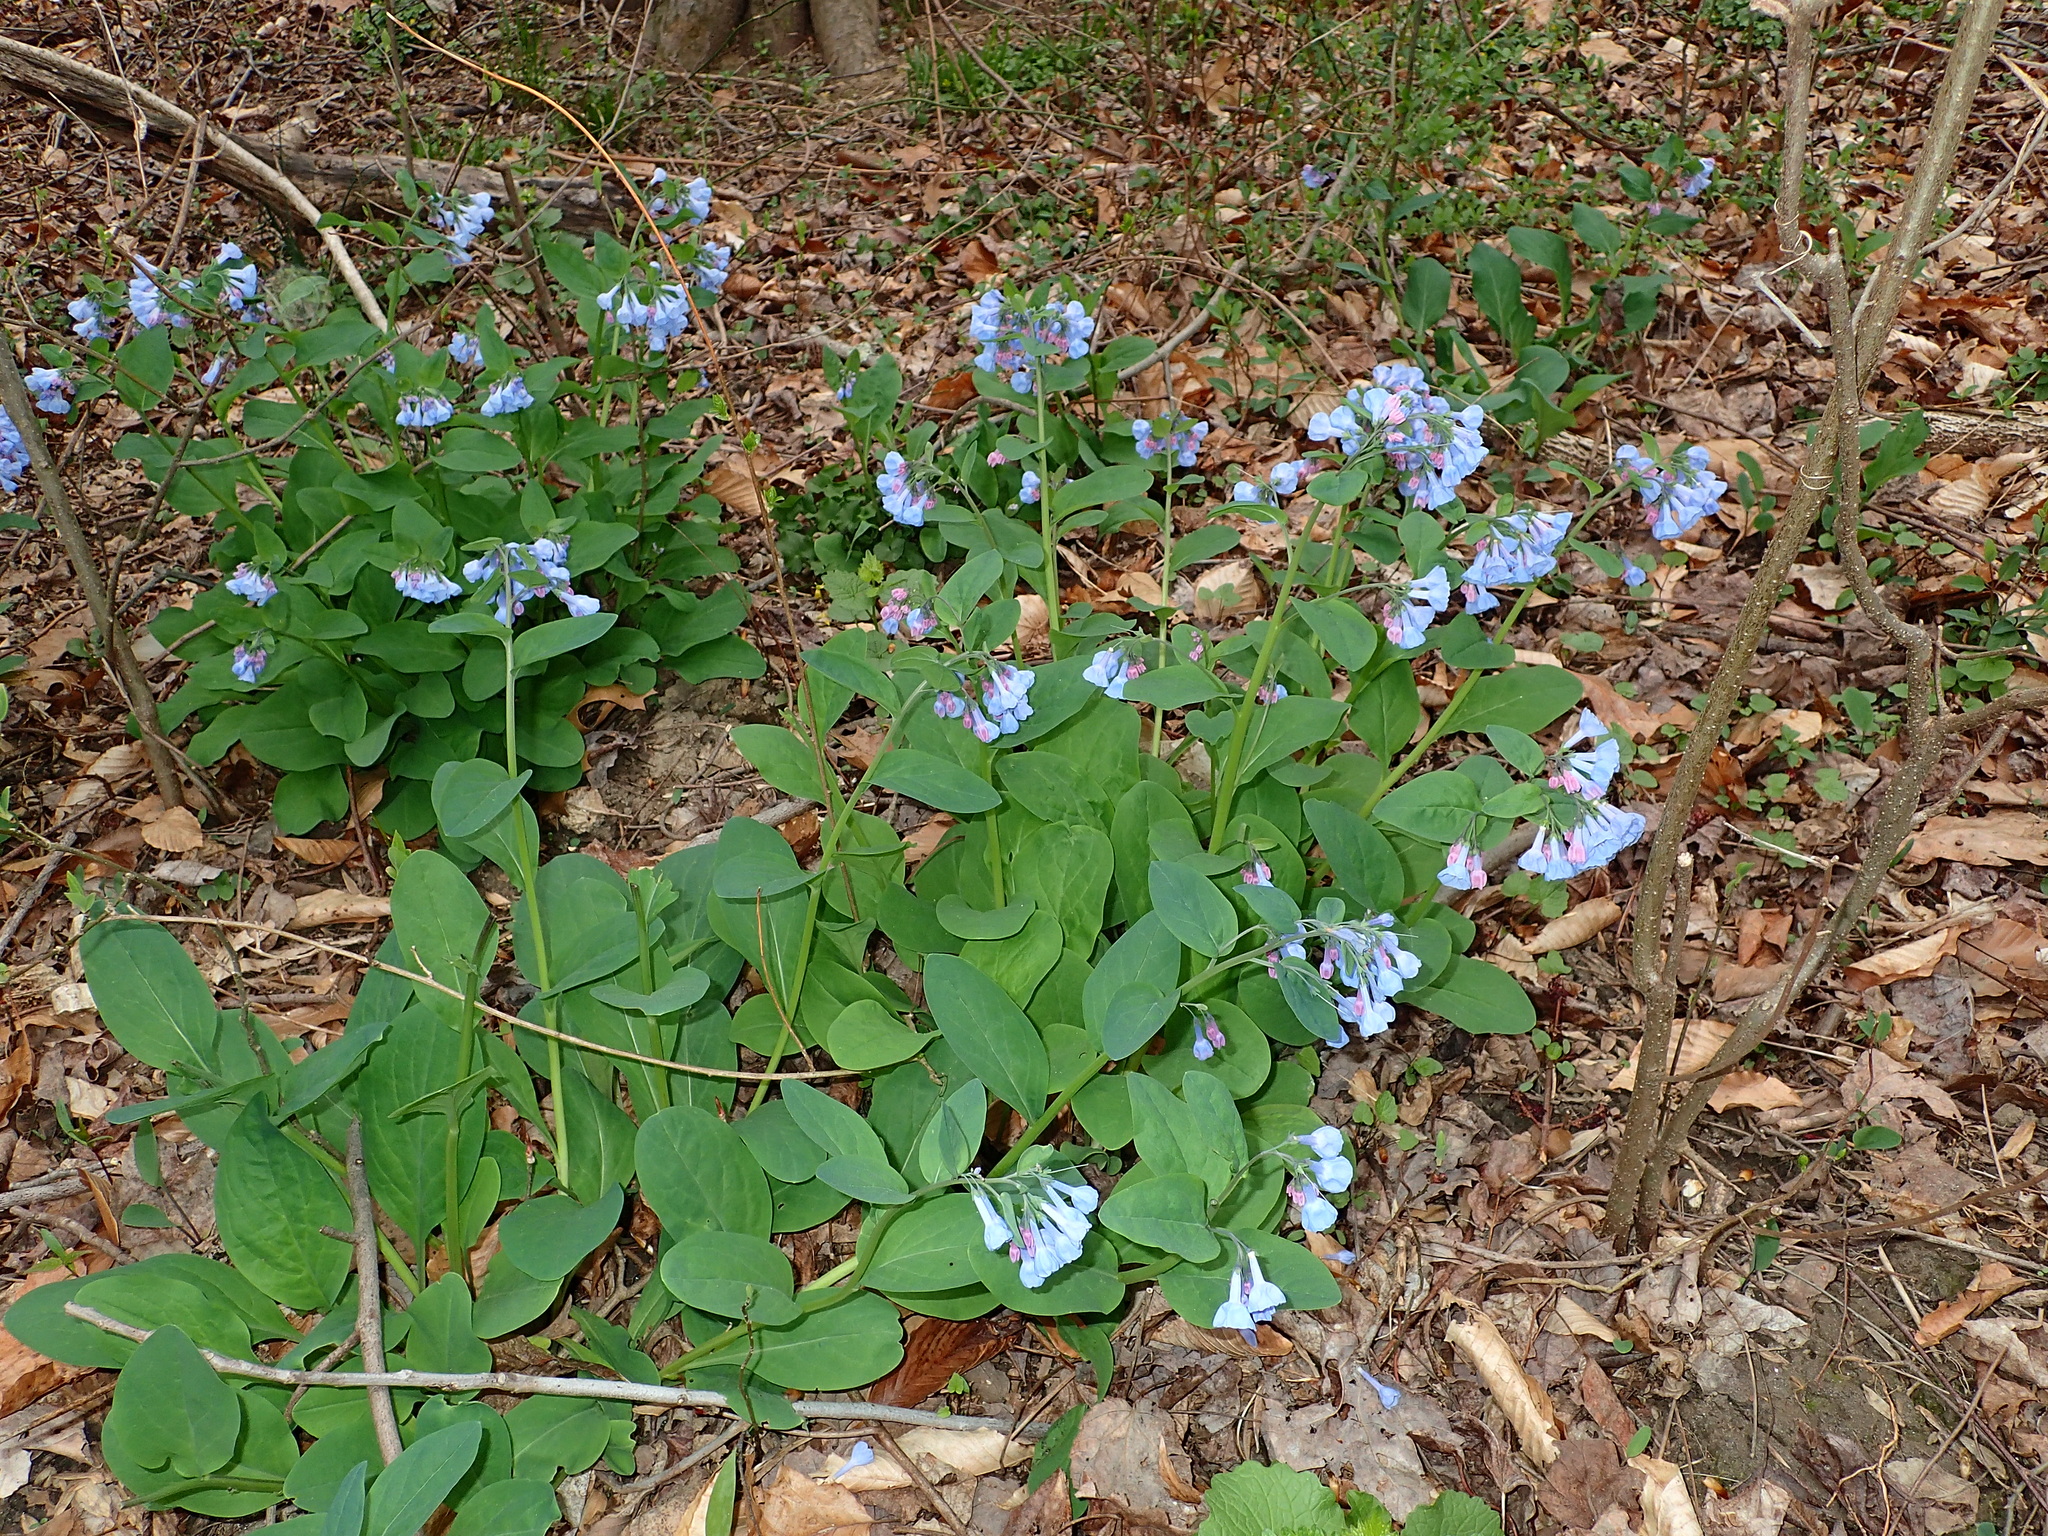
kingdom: Plantae
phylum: Tracheophyta
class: Magnoliopsida
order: Boraginales
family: Boraginaceae
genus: Mertensia
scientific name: Mertensia virginica
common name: Virginia bluebells
